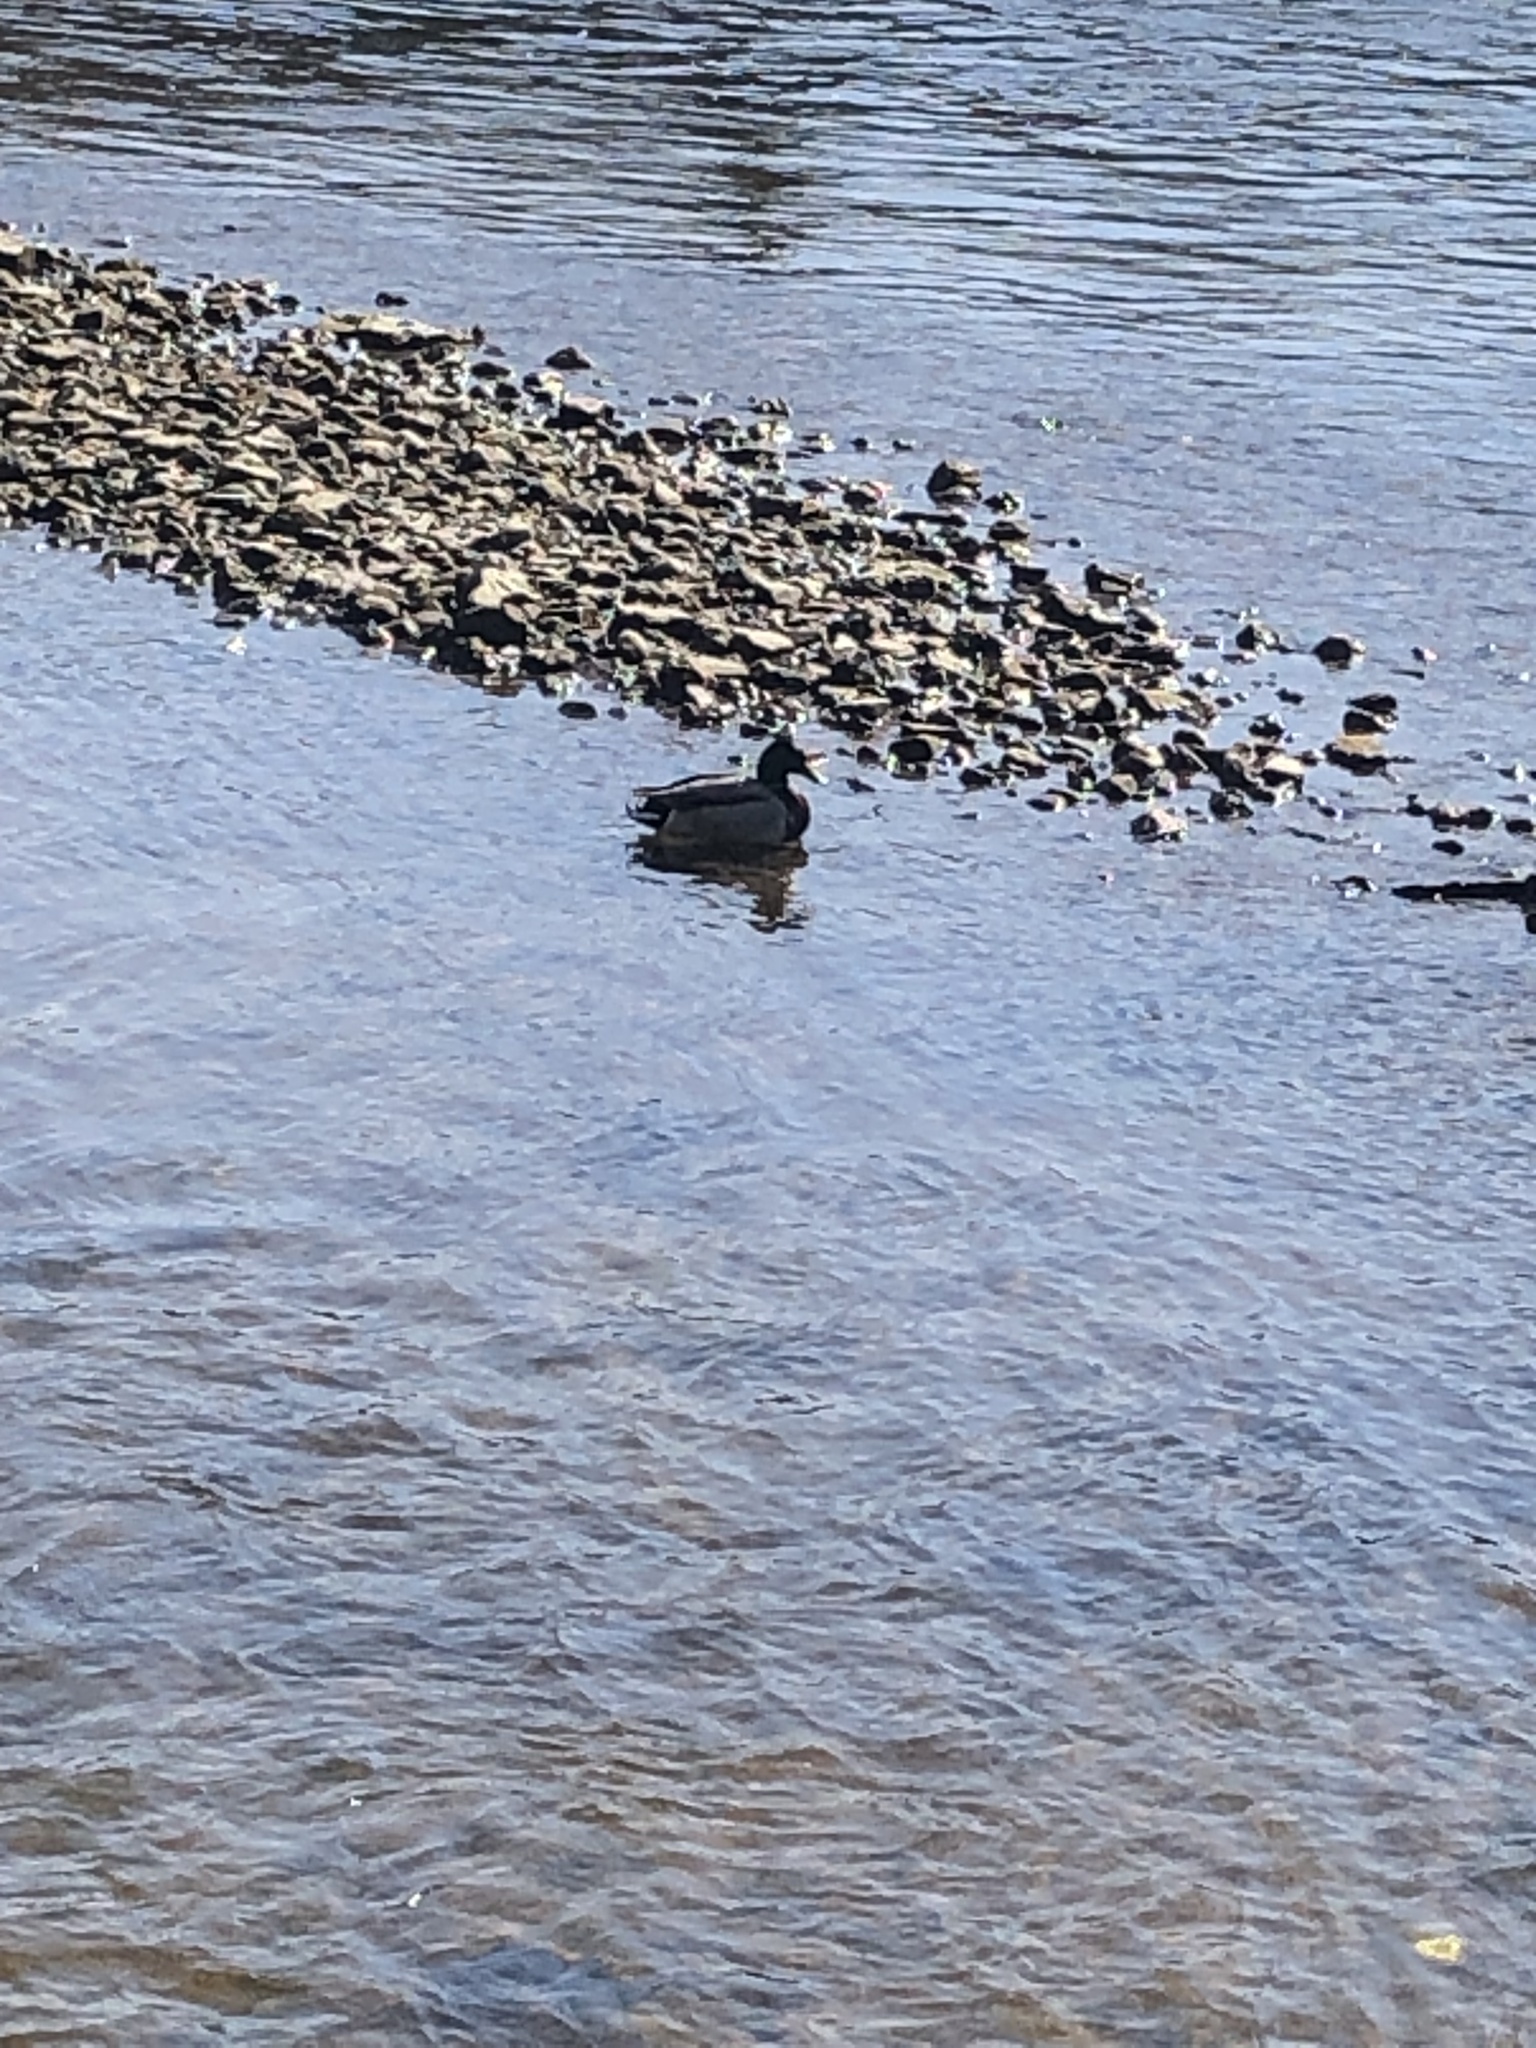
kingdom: Animalia
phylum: Chordata
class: Aves
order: Anseriformes
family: Anatidae
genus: Anas
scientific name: Anas platyrhynchos
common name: Mallard
